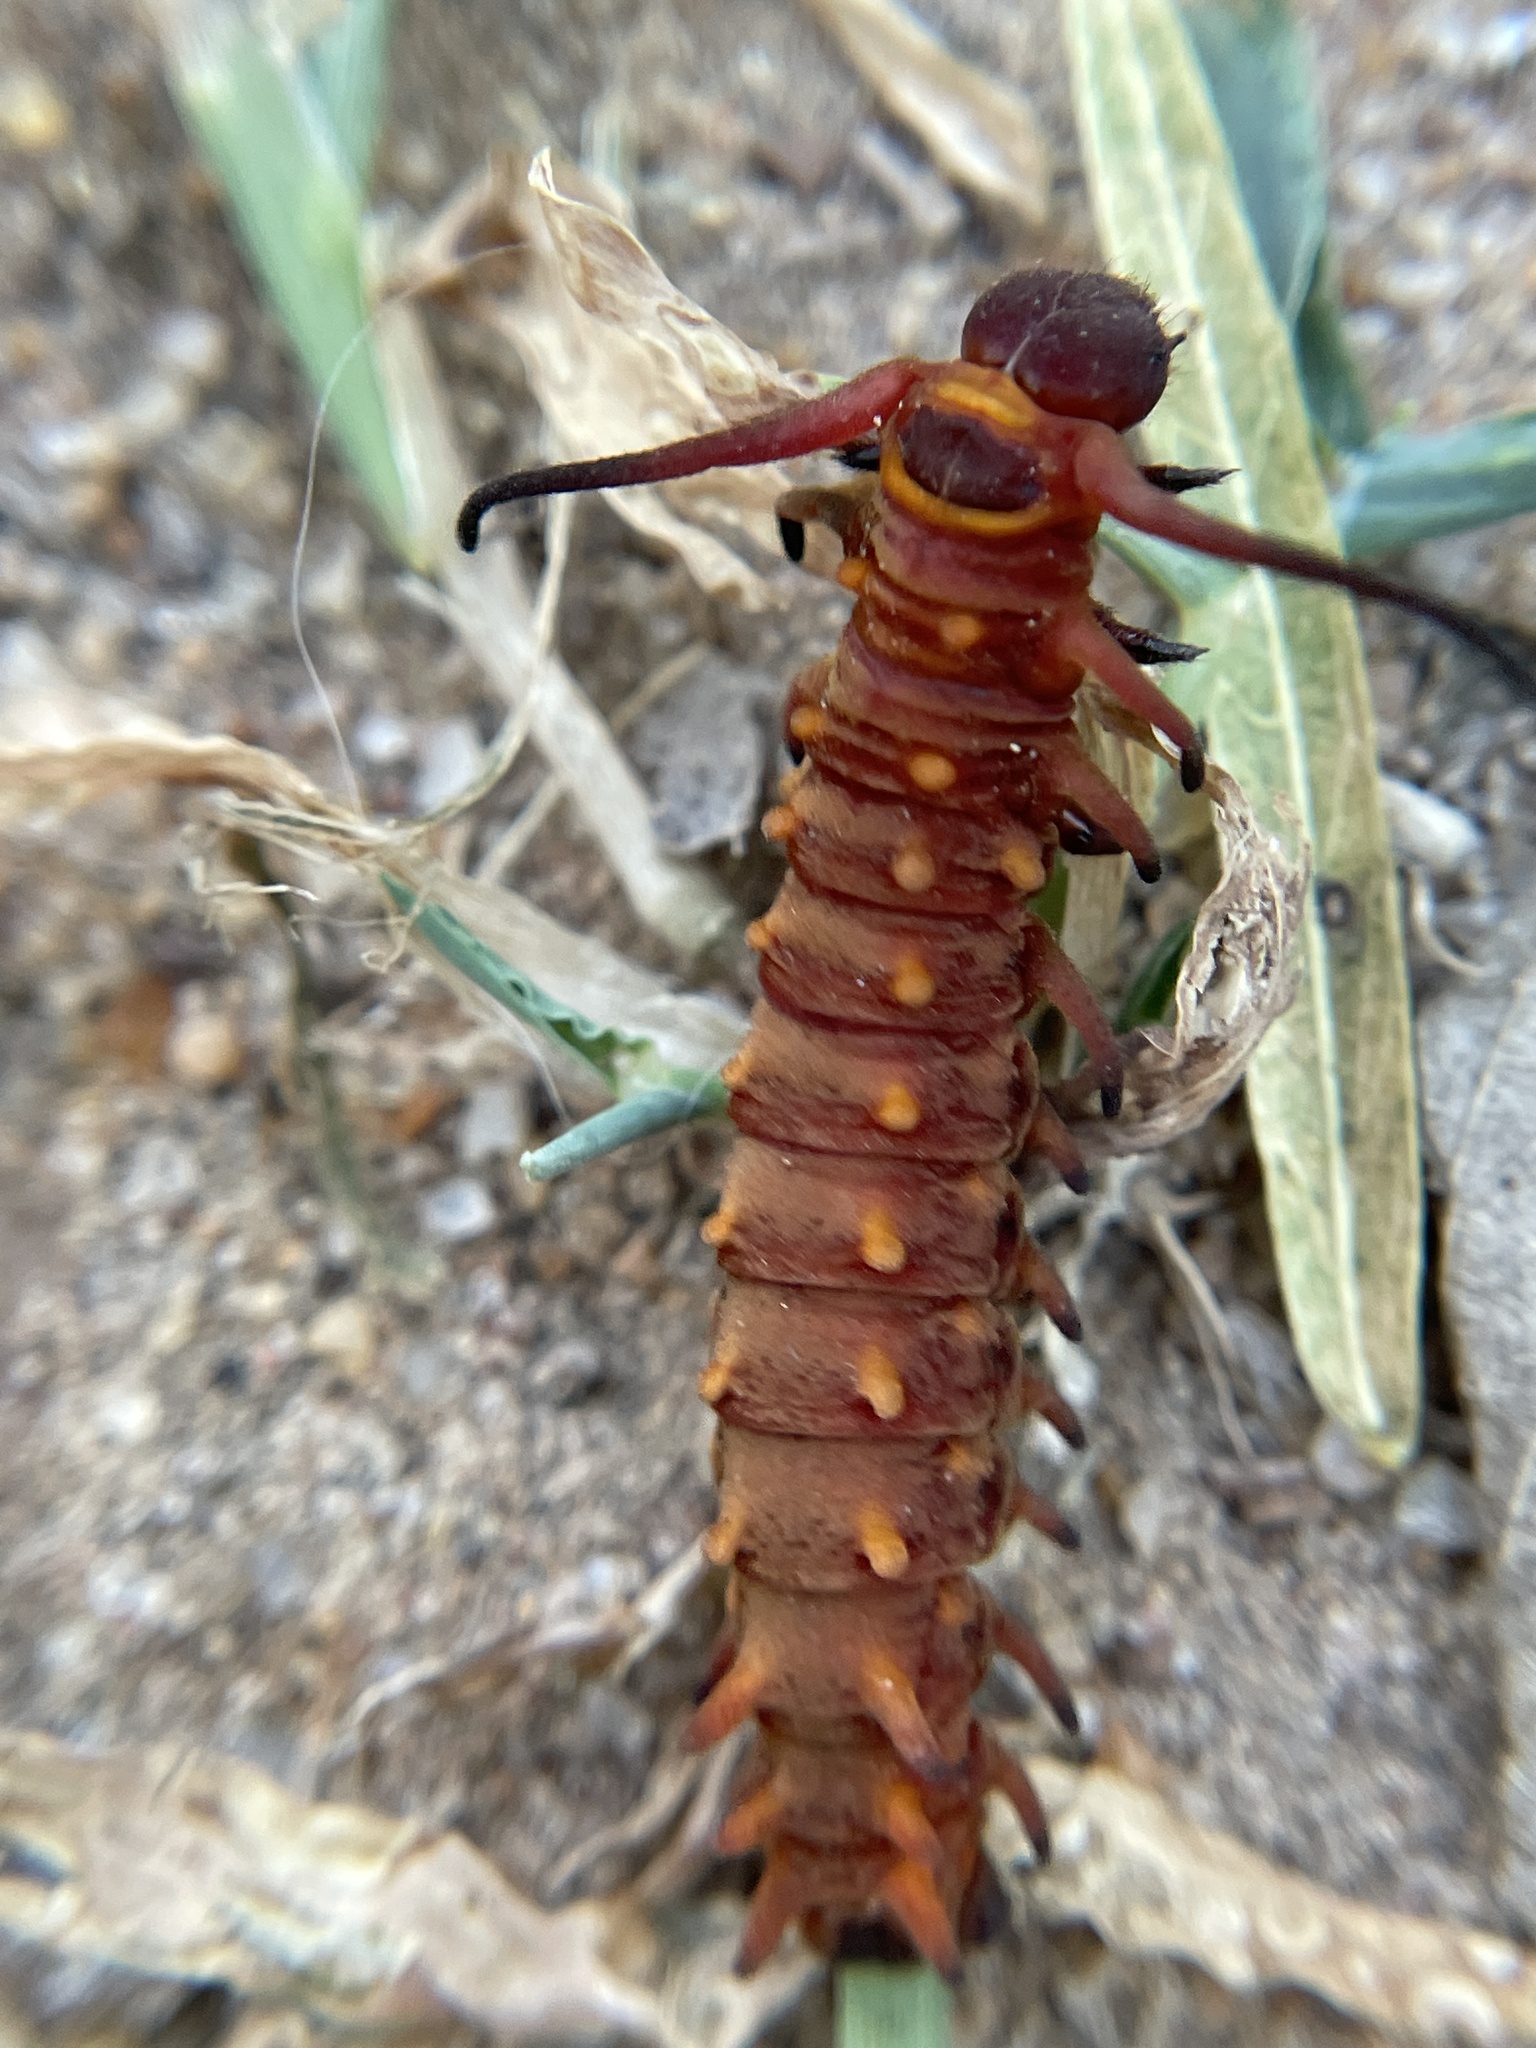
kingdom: Animalia
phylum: Arthropoda
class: Insecta
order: Lepidoptera
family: Papilionidae
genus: Battus
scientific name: Battus philenor
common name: Pipevine swallowtail
